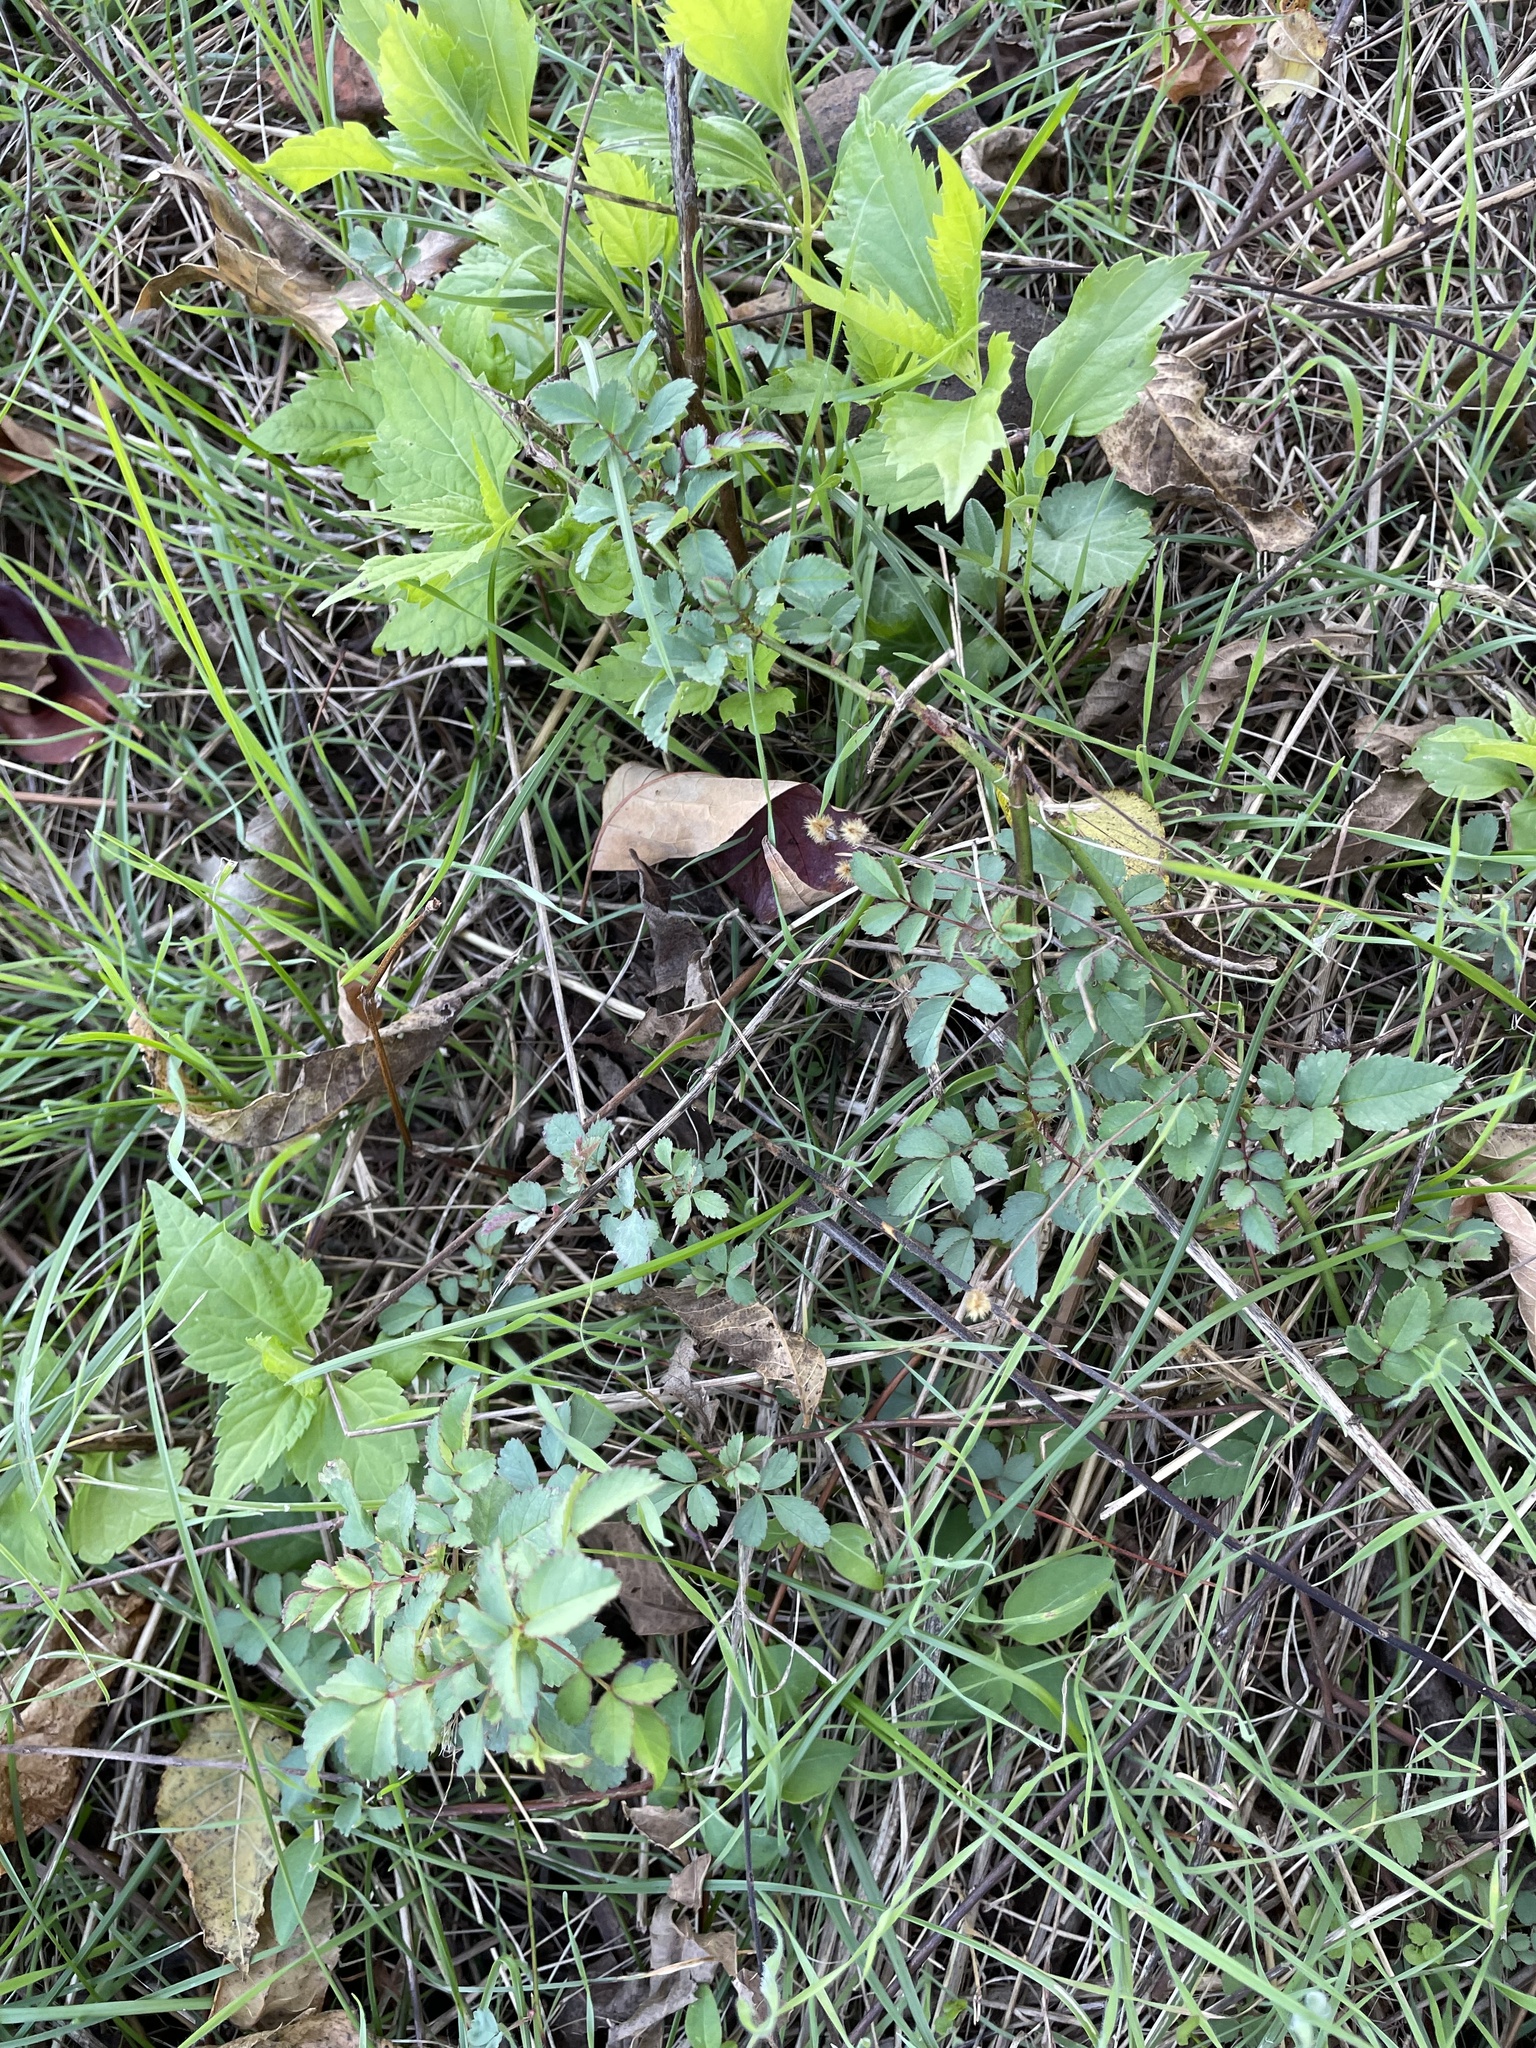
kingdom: Plantae
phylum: Tracheophyta
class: Magnoliopsida
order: Rosales
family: Rosaceae
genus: Rosa
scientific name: Rosa multiflora
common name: Multiflora rose
